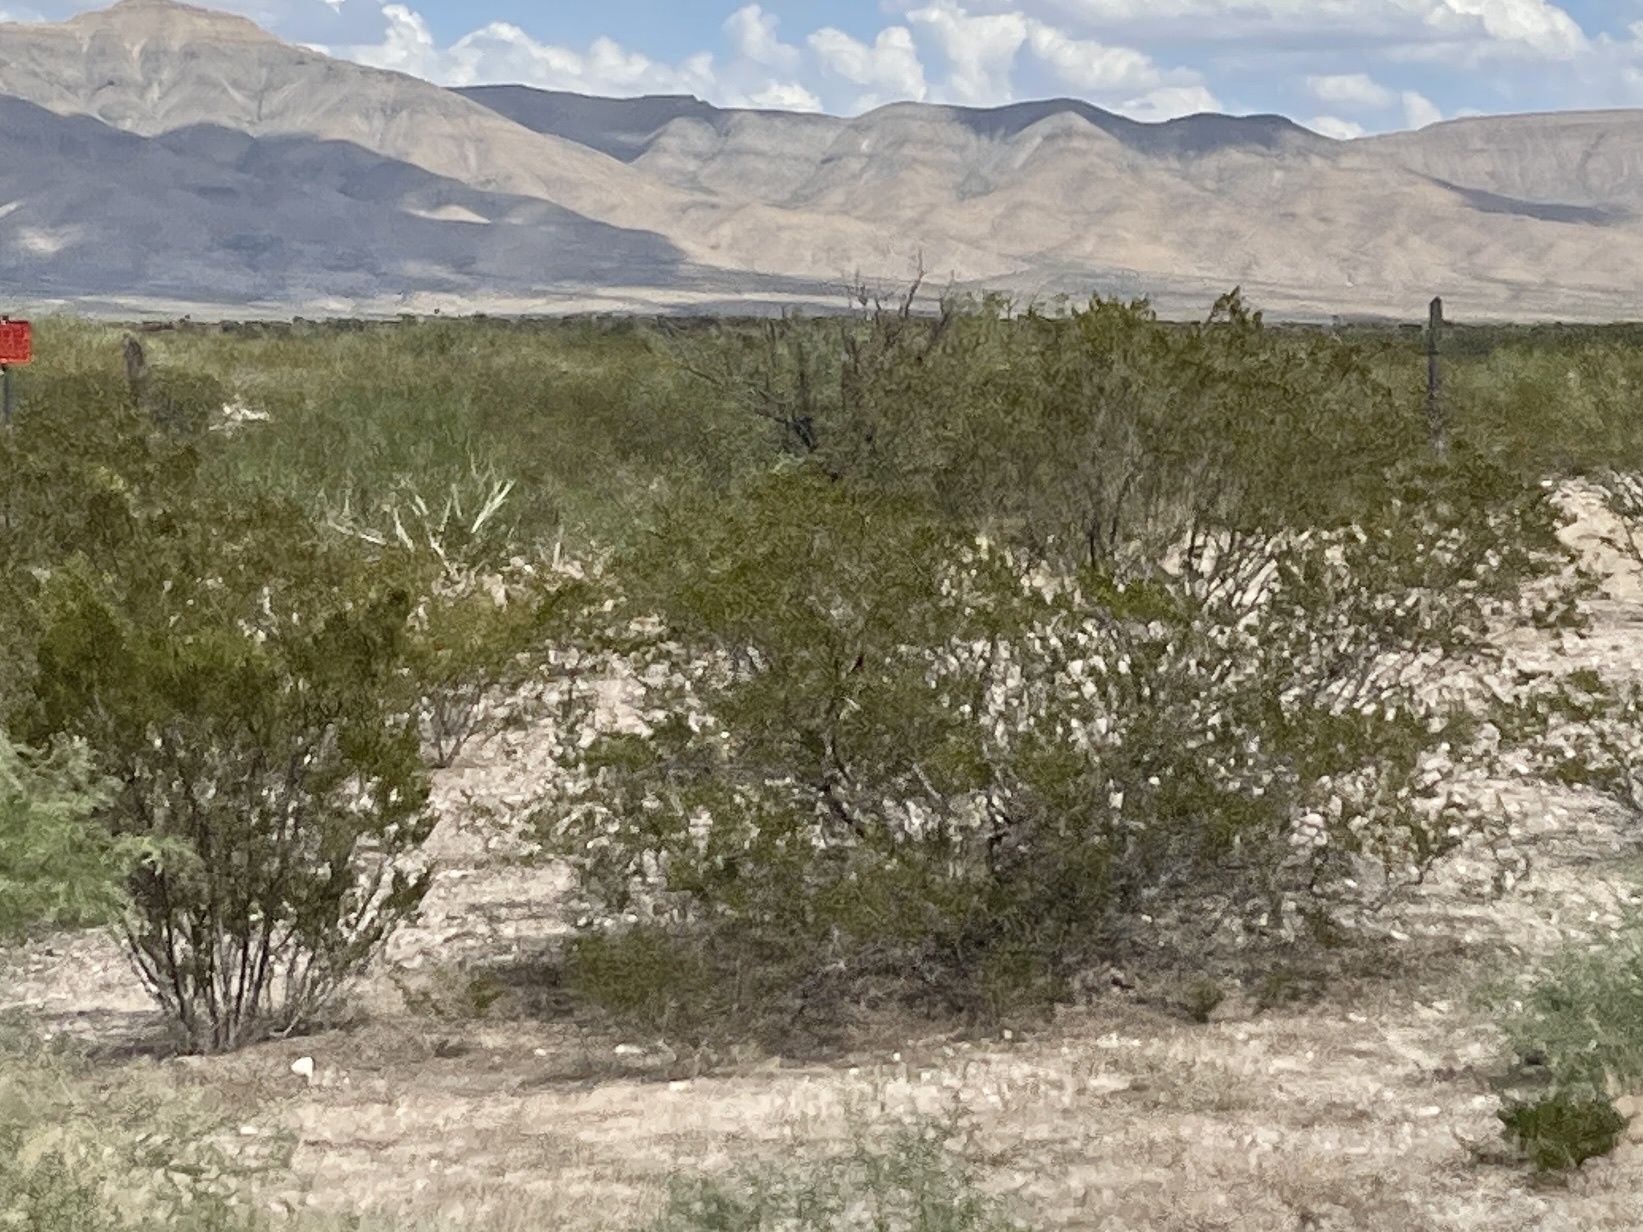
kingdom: Plantae
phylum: Tracheophyta
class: Magnoliopsida
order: Zygophyllales
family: Zygophyllaceae
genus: Larrea
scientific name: Larrea tridentata
